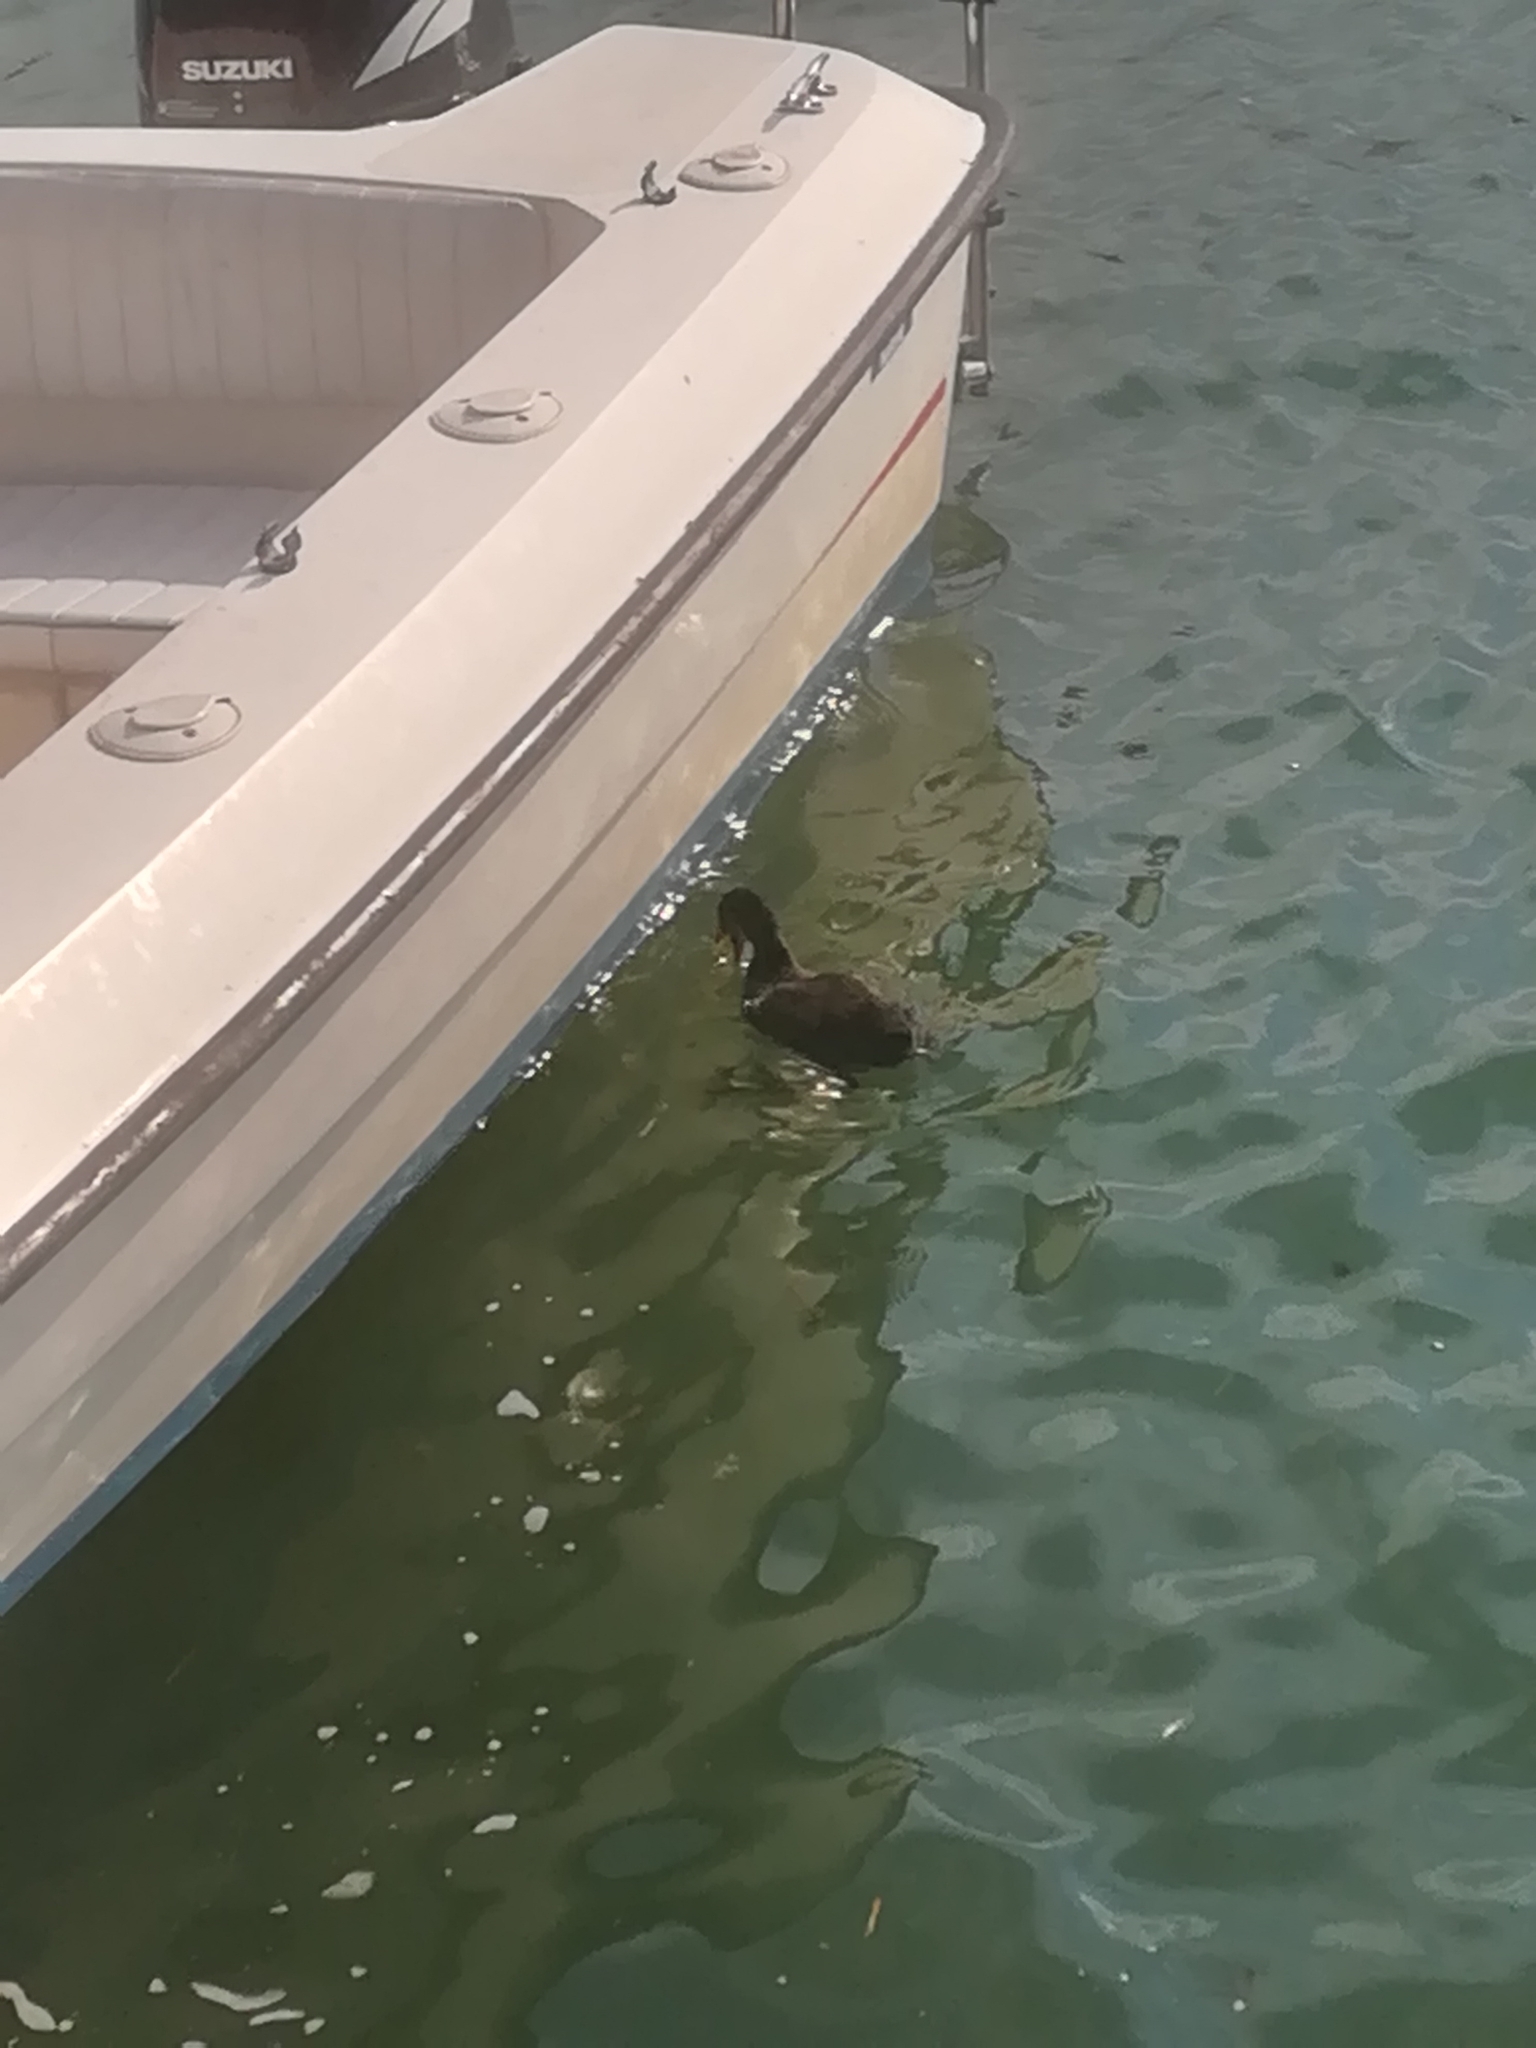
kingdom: Animalia
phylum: Chordata
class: Aves
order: Gruiformes
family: Rallidae
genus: Fulica
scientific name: Fulica atra
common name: Eurasian coot
